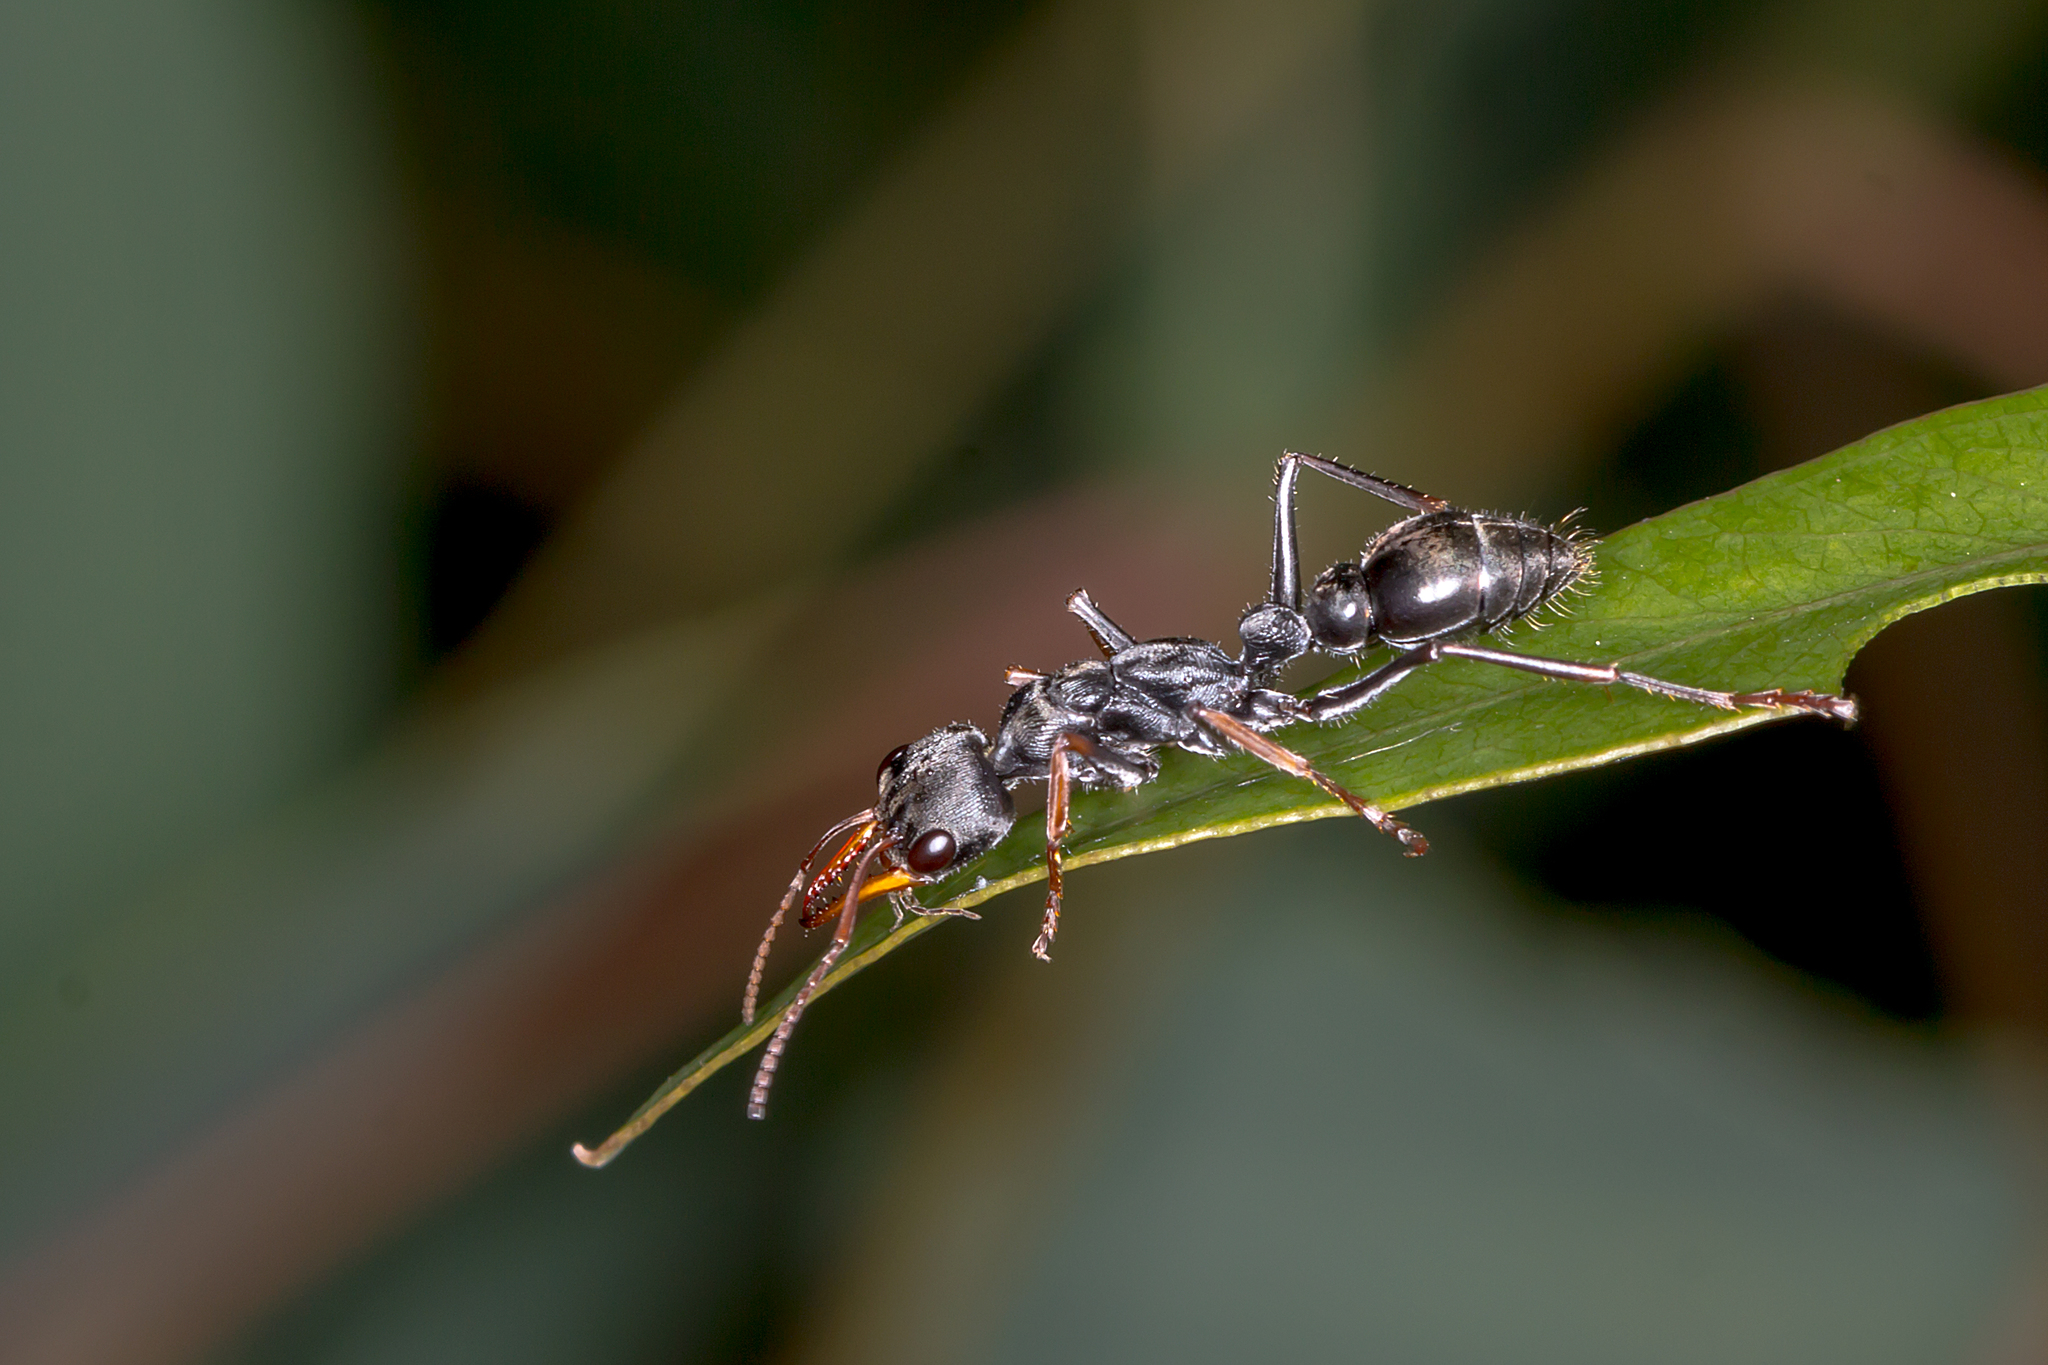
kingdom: Animalia
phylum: Arthropoda
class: Insecta
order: Hymenoptera
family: Formicidae
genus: Myrmecia
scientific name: Myrmecia pilosula
